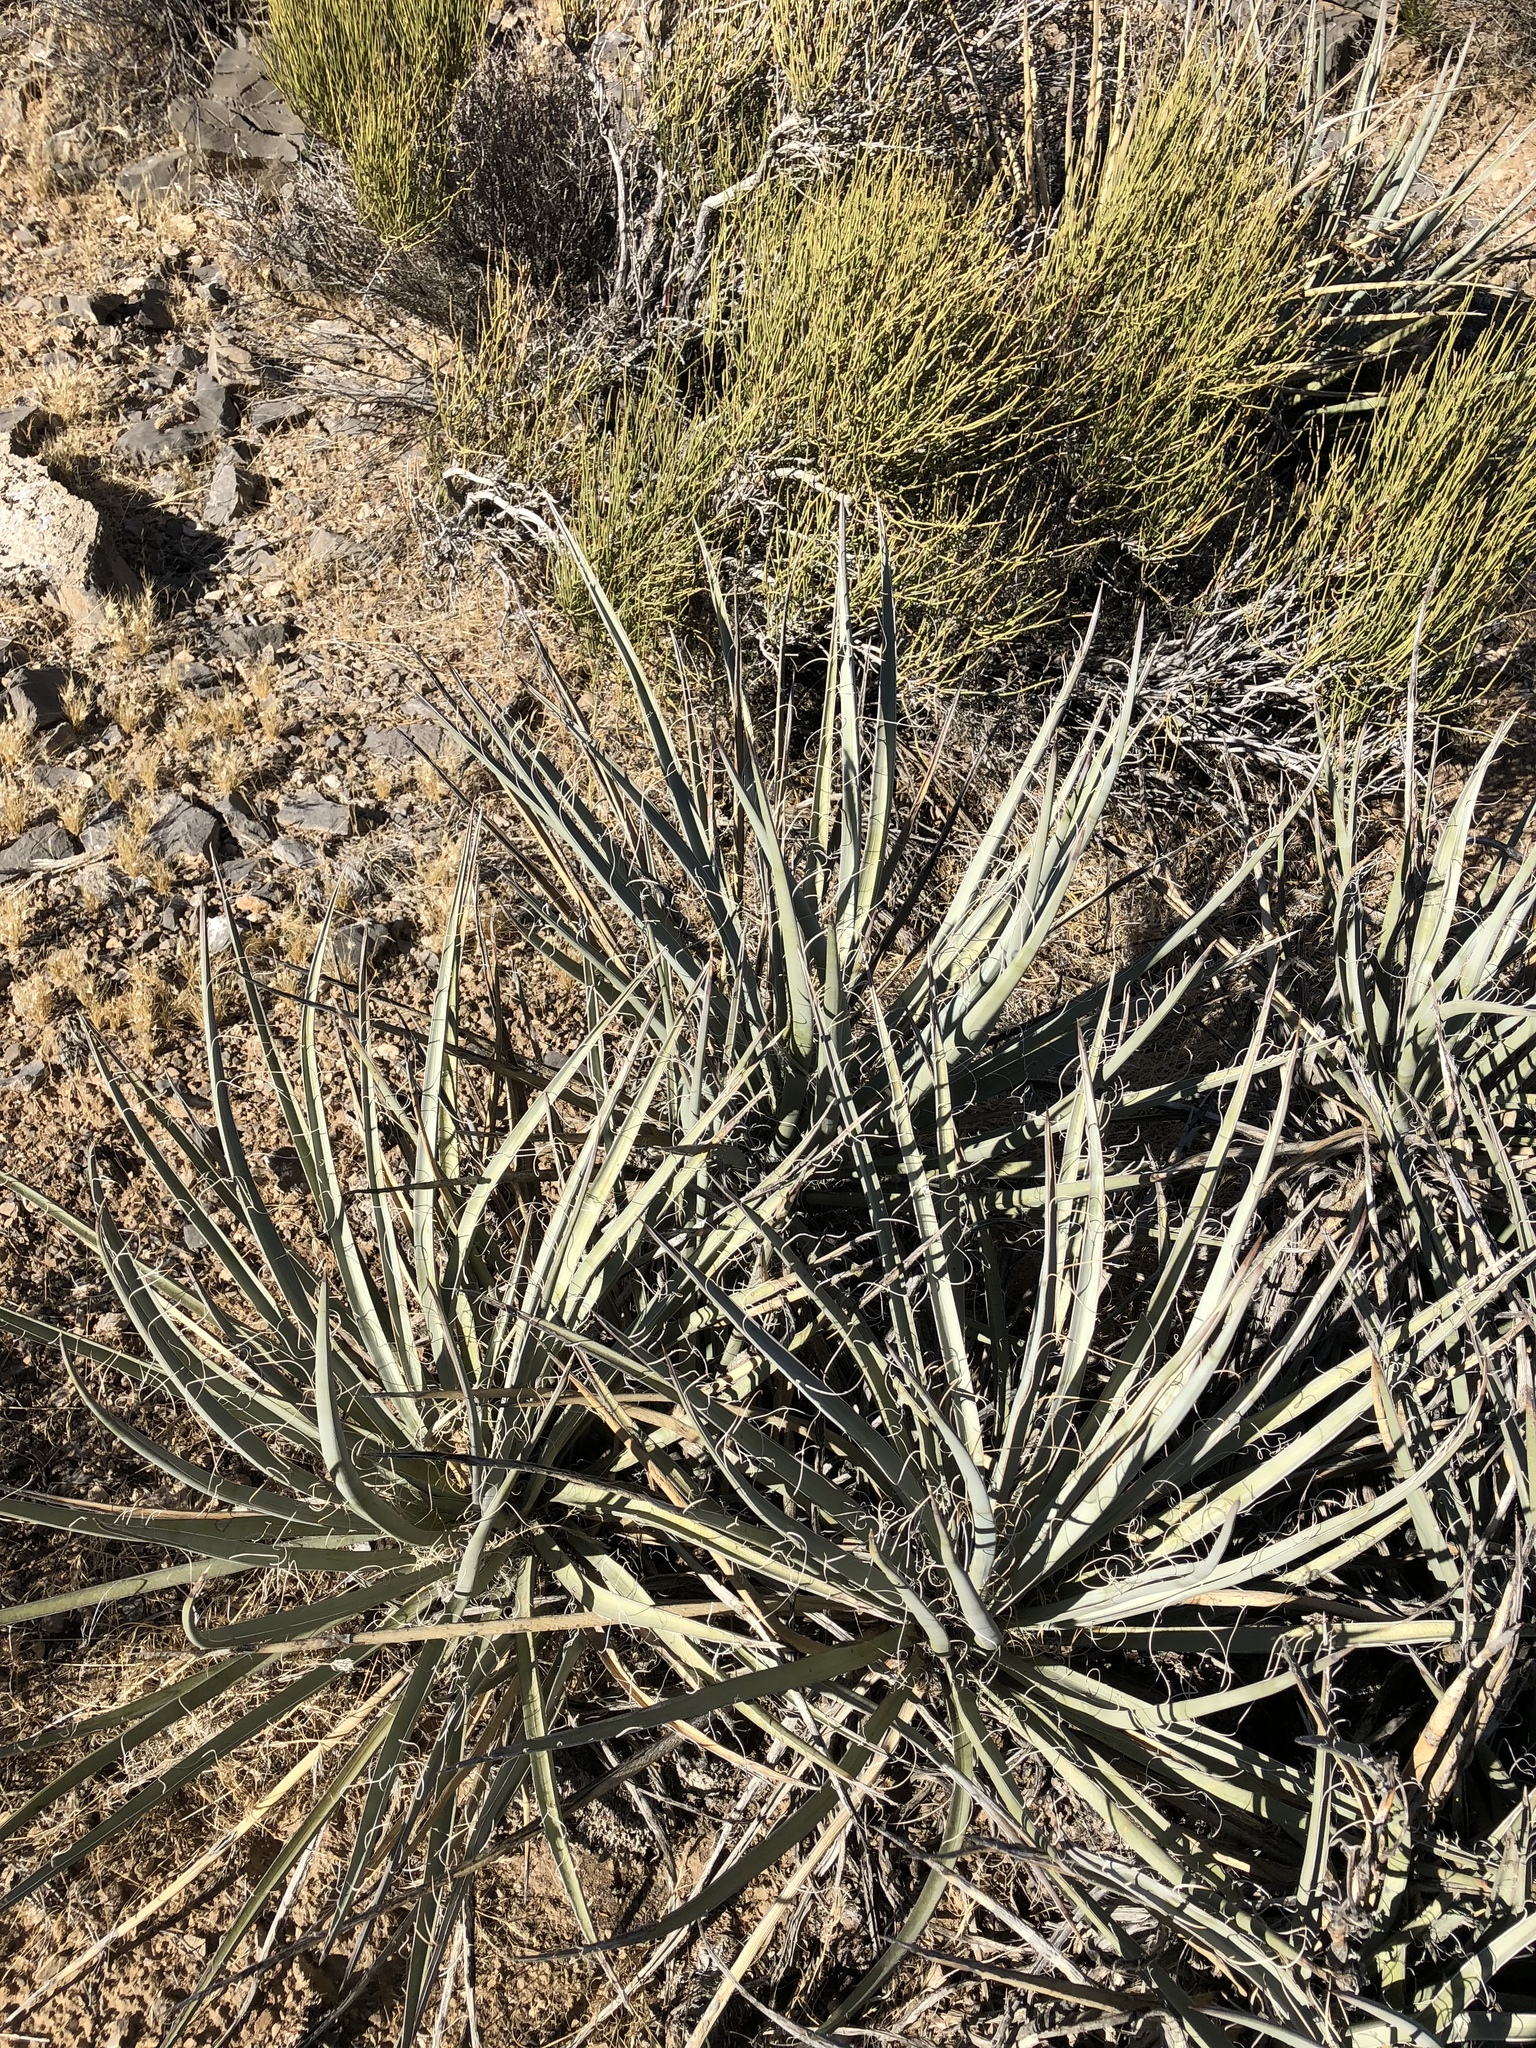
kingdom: Plantae
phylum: Tracheophyta
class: Liliopsida
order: Asparagales
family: Asparagaceae
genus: Yucca
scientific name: Yucca baccata
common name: Banana yucca
